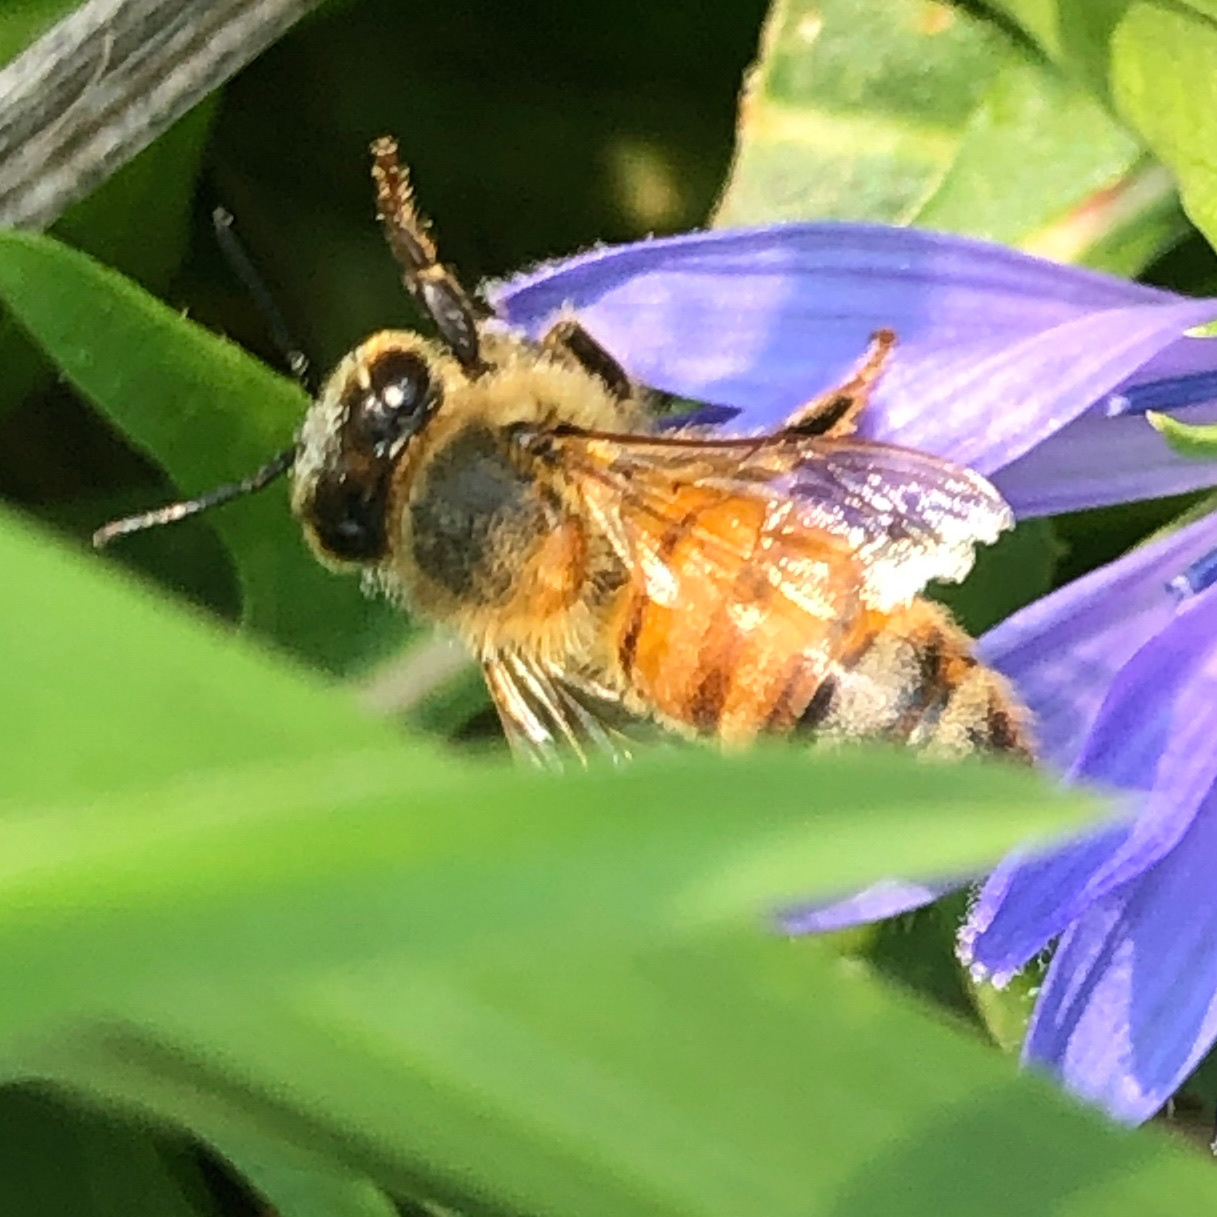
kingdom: Animalia
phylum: Arthropoda
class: Insecta
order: Hymenoptera
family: Apidae
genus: Apis
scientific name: Apis mellifera
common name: Honey bee
